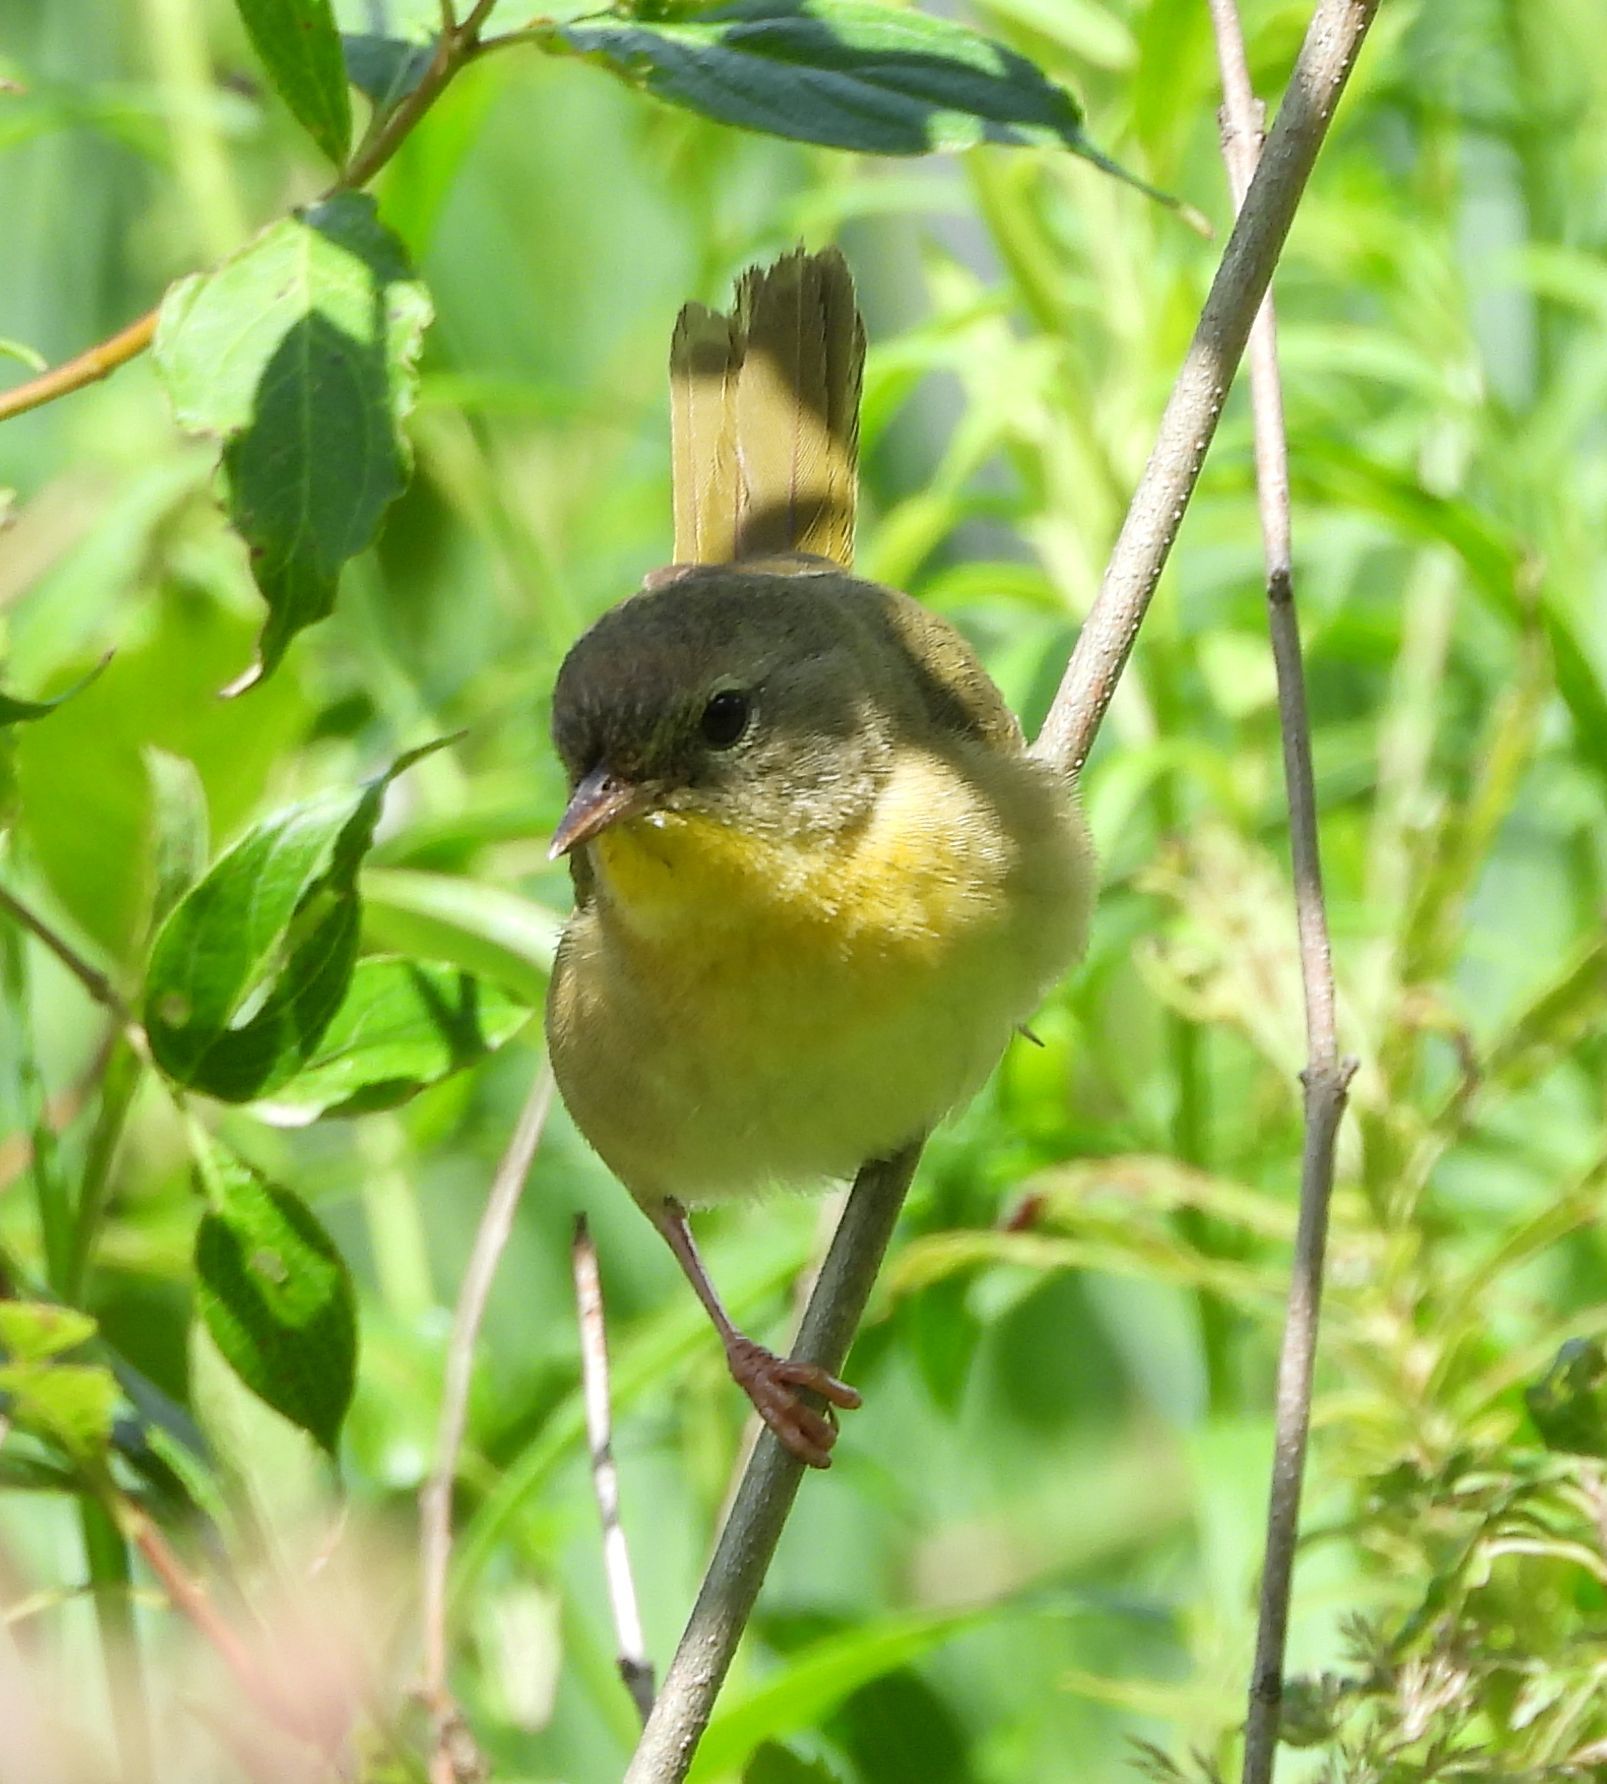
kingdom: Animalia
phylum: Chordata
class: Aves
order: Passeriformes
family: Parulidae
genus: Geothlypis
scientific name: Geothlypis trichas
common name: Common yellowthroat
